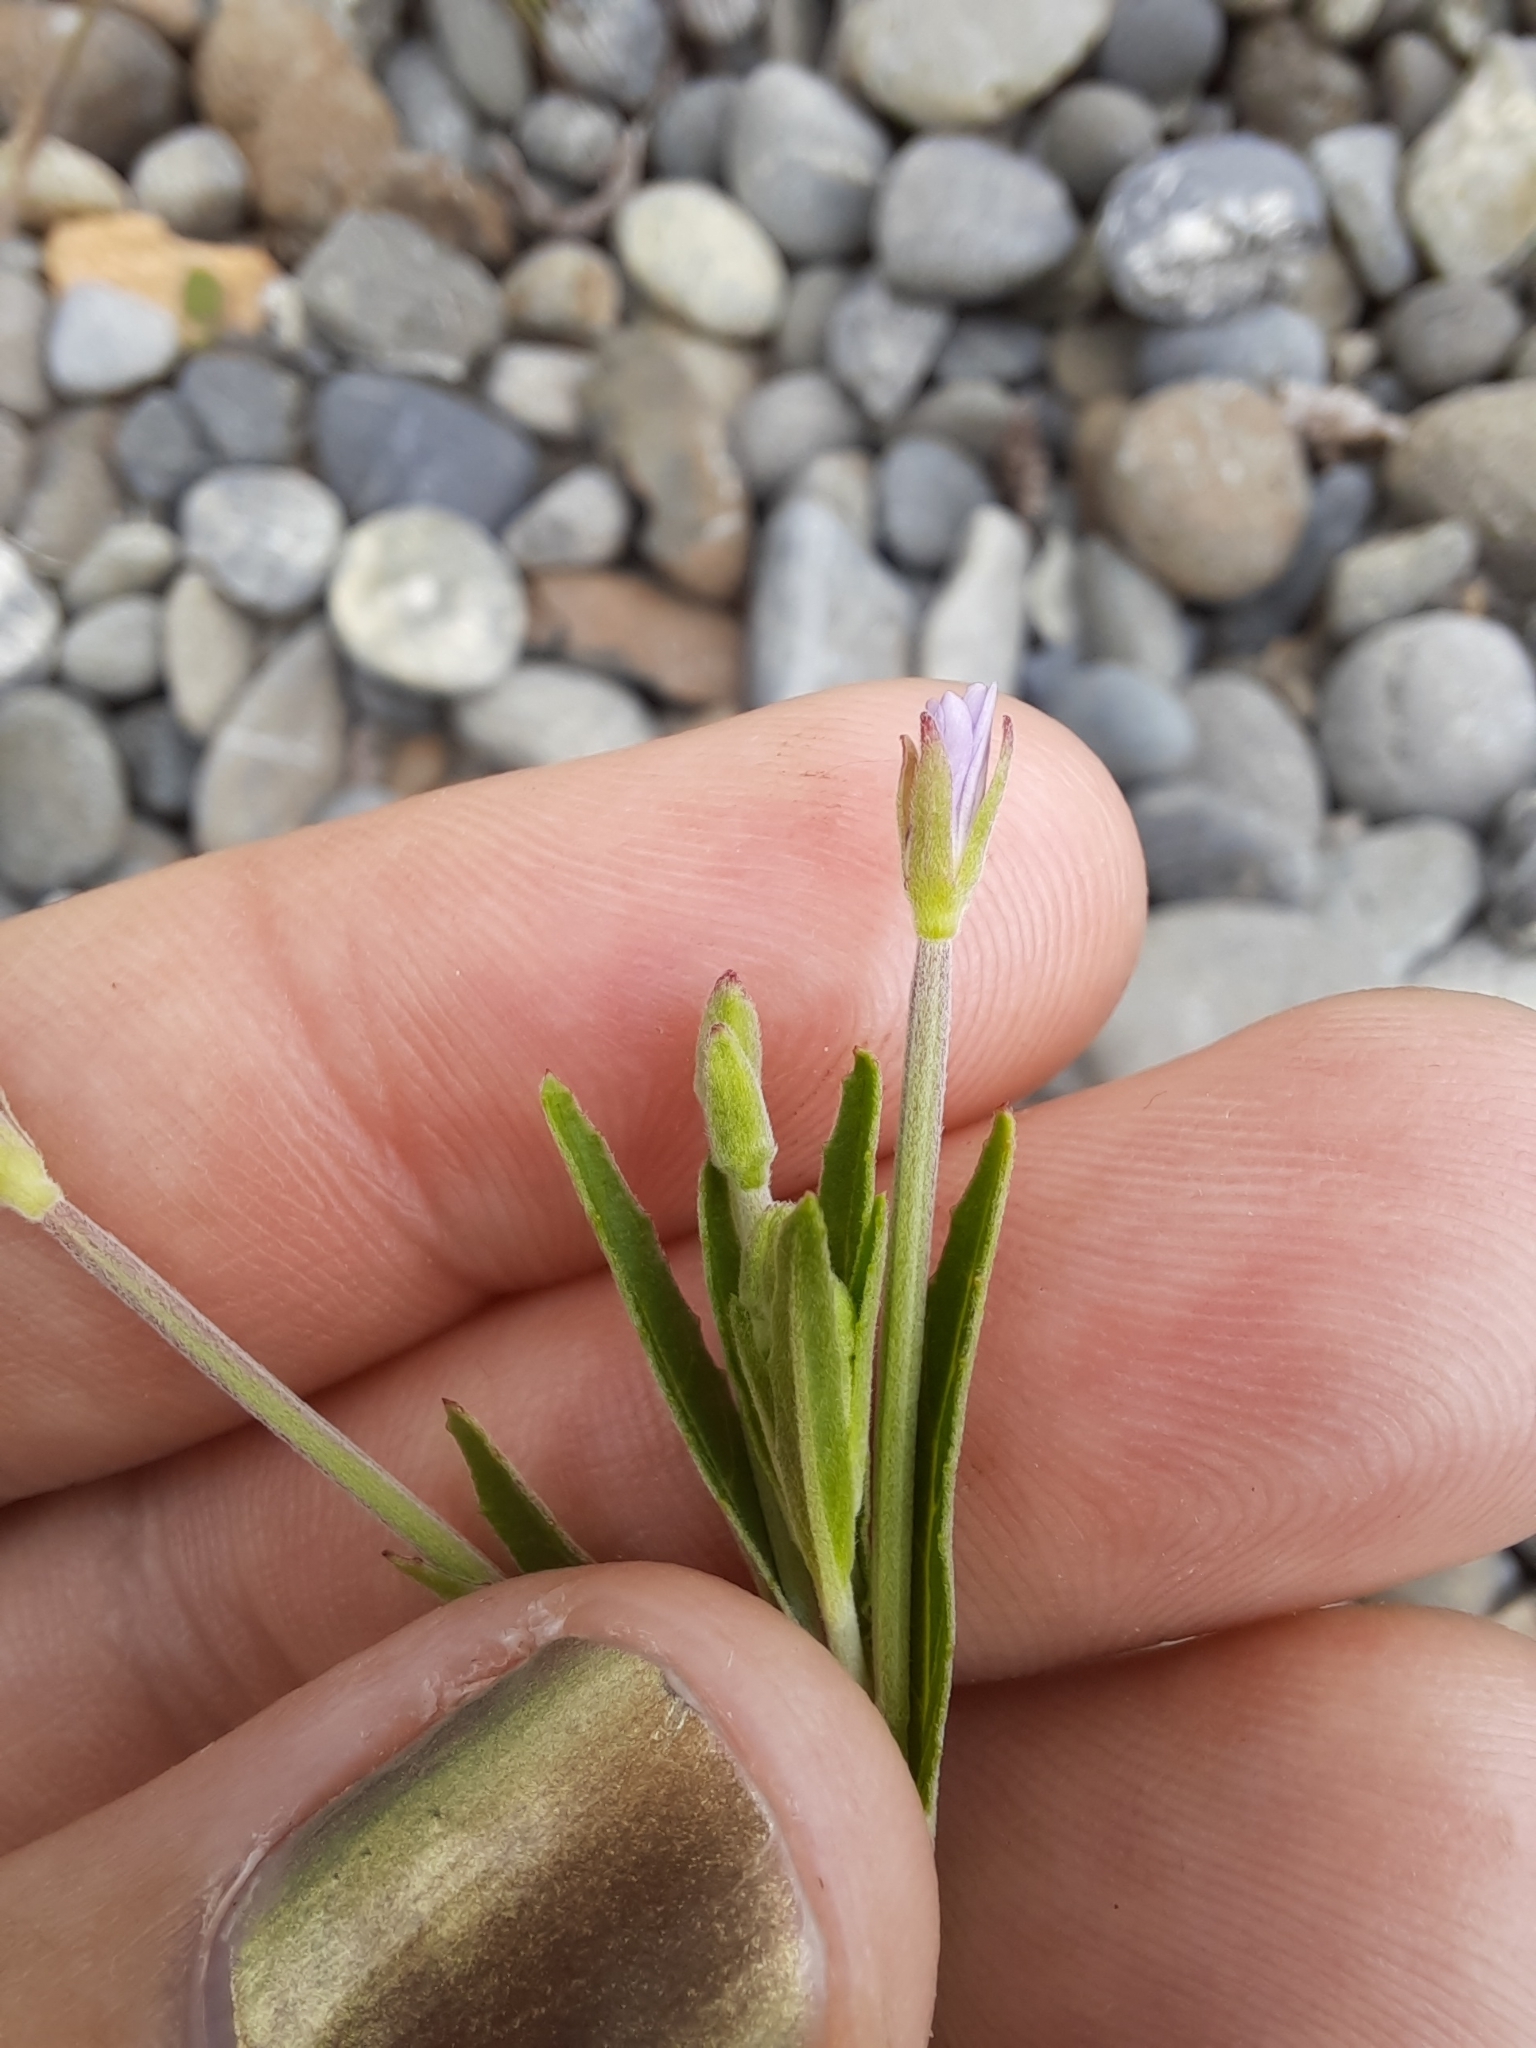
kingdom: Plantae
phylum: Tracheophyta
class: Magnoliopsida
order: Myrtales
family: Onagraceae
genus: Epilobium
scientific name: Epilobium ciliatum
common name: American willowherb
